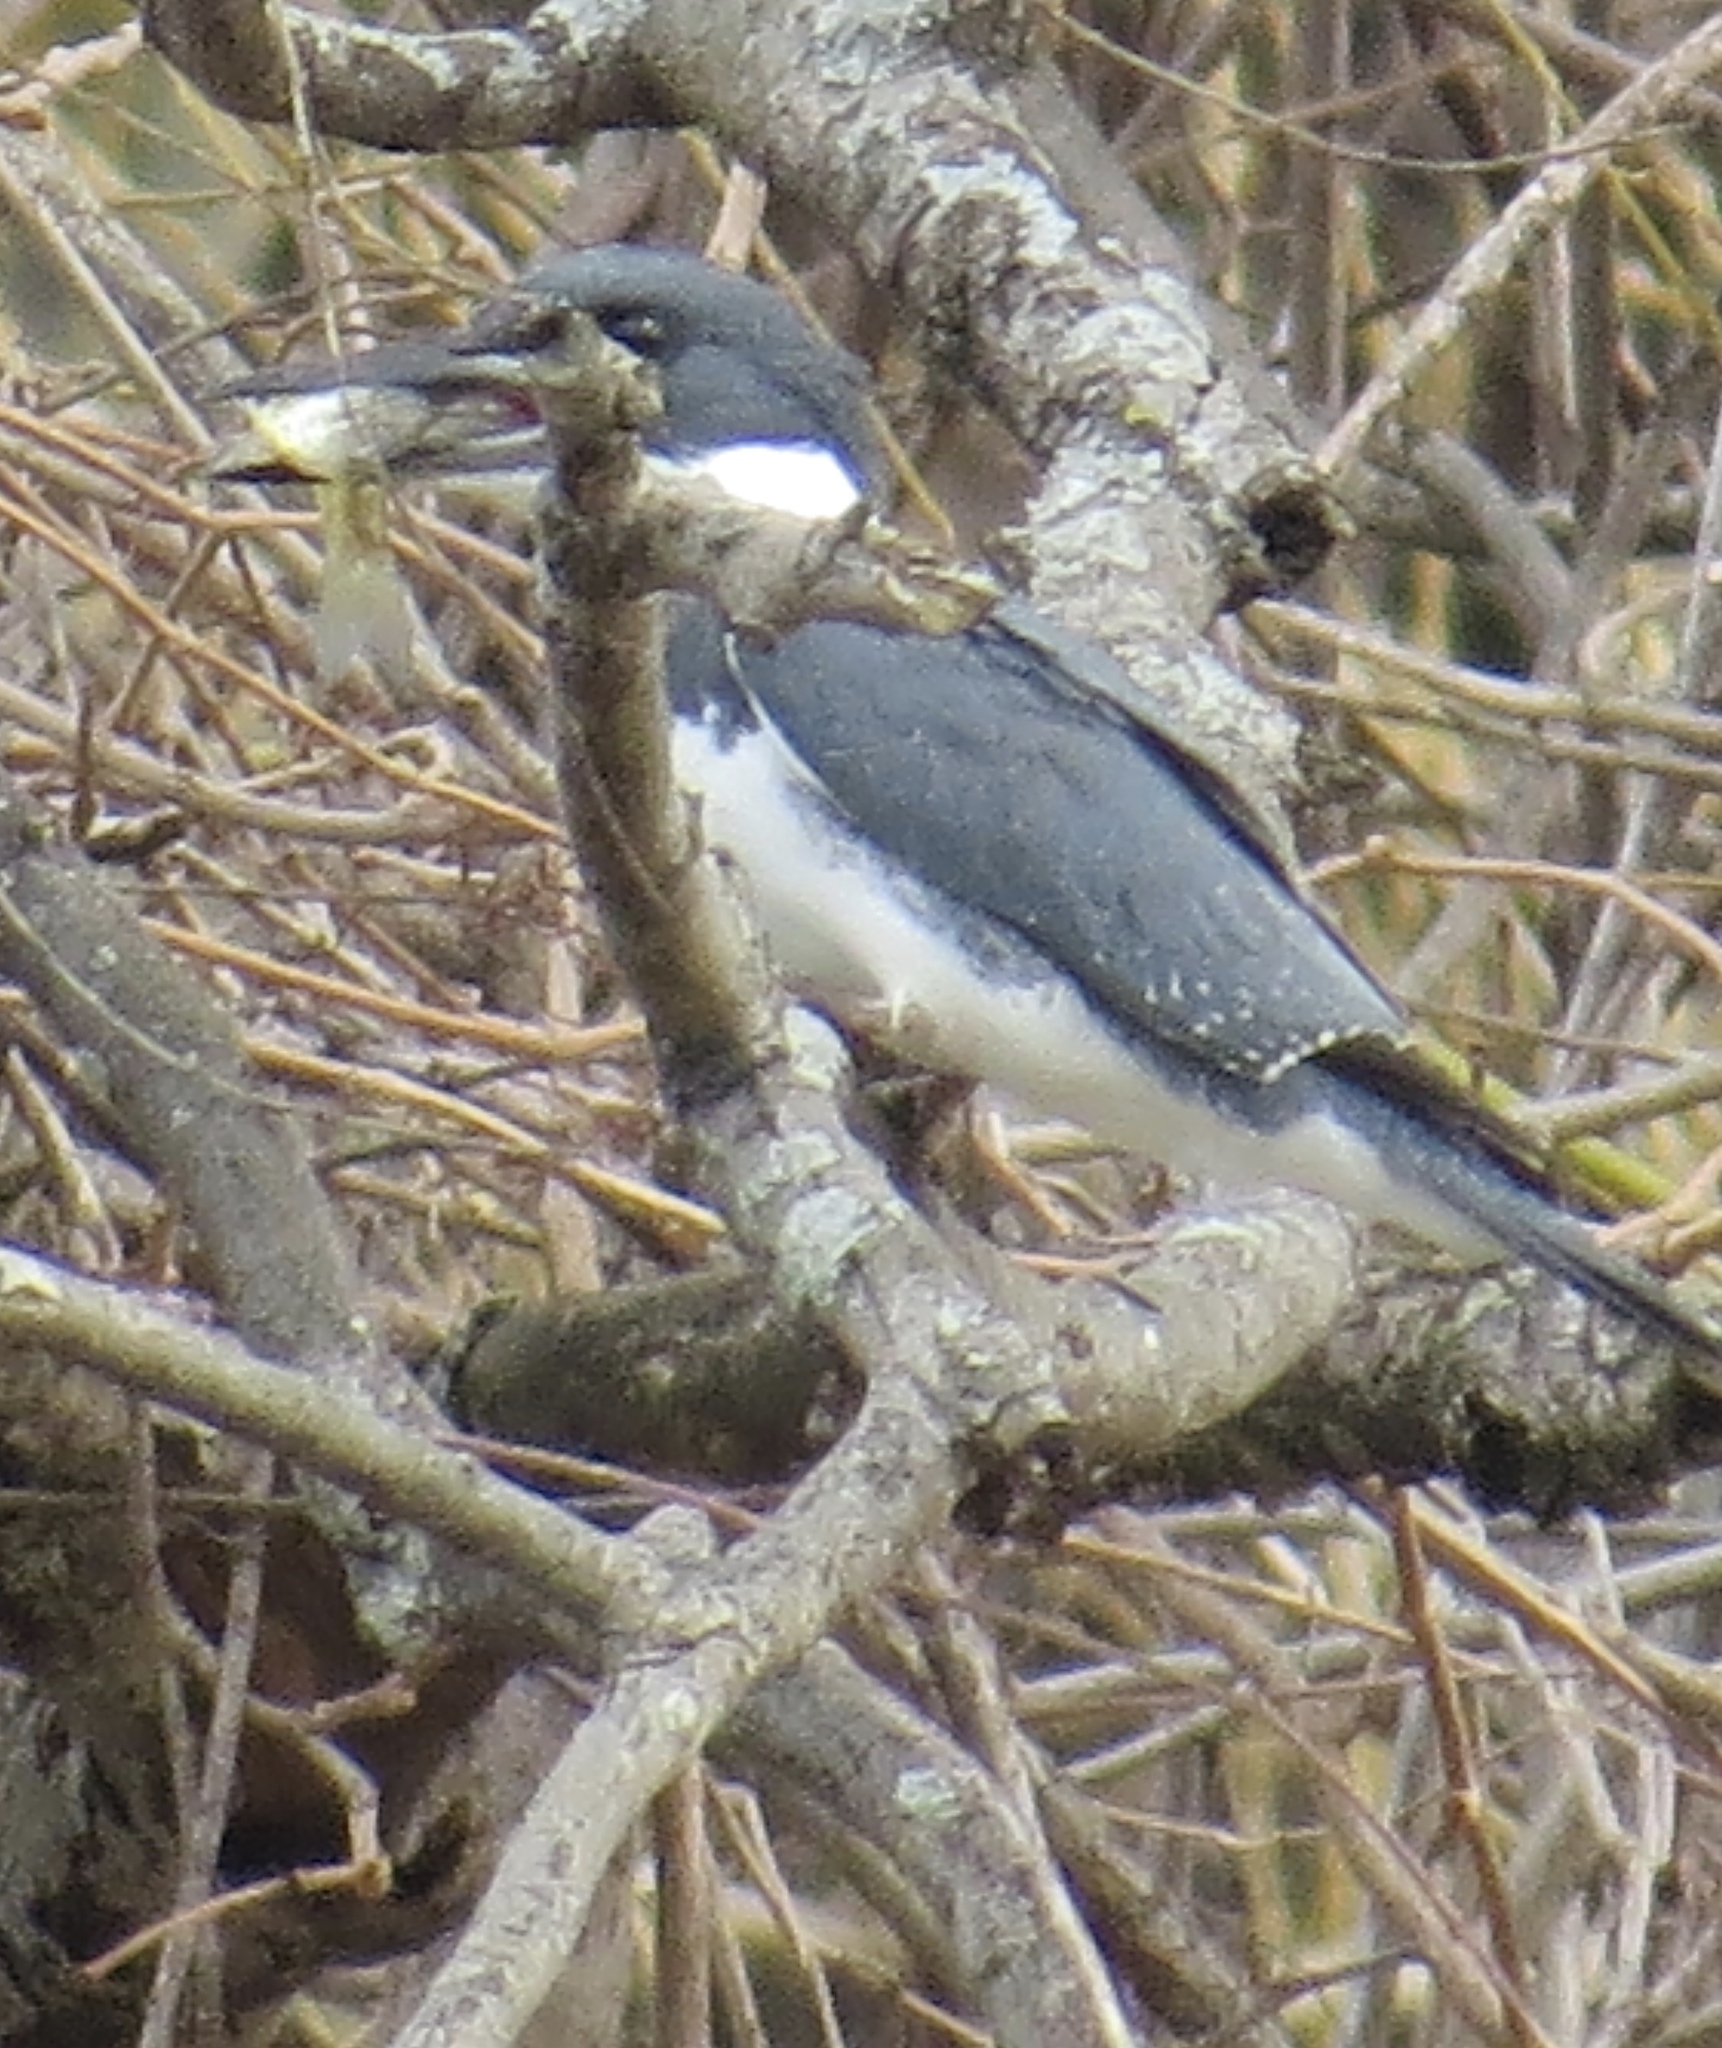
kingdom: Animalia
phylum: Chordata
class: Aves
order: Coraciiformes
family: Alcedinidae
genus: Megaceryle
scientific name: Megaceryle alcyon
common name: Belted kingfisher
